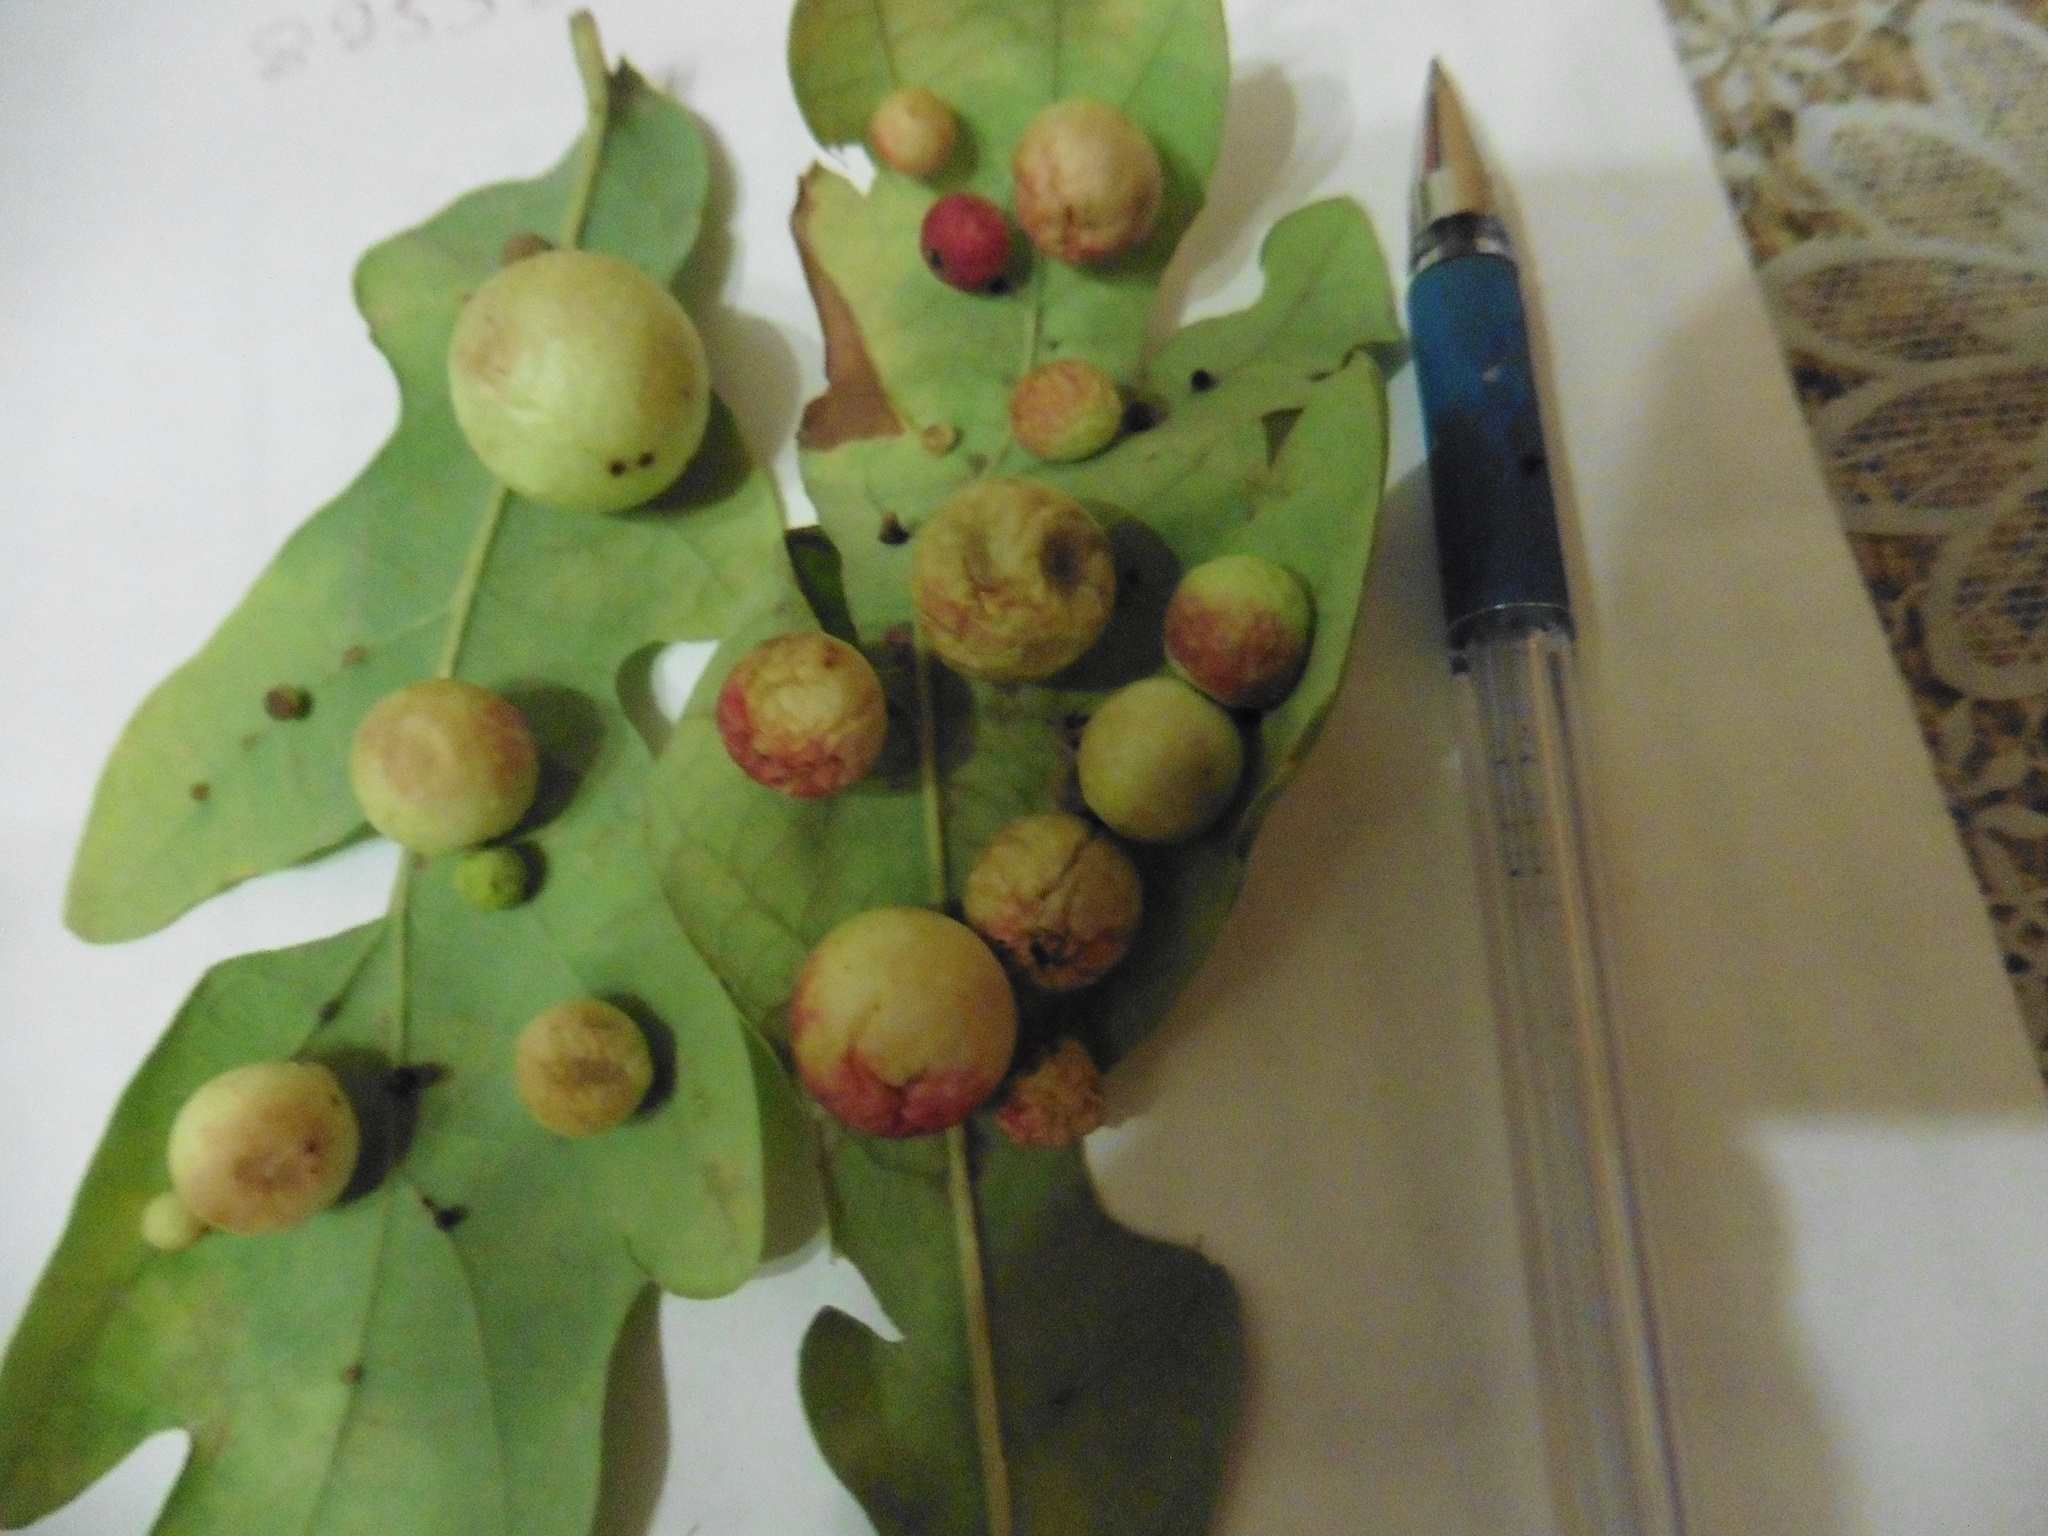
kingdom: Animalia
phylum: Arthropoda
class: Insecta
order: Hymenoptera
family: Cynipidae
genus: Cynips
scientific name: Cynips quercusfolii
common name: Cherry gall
